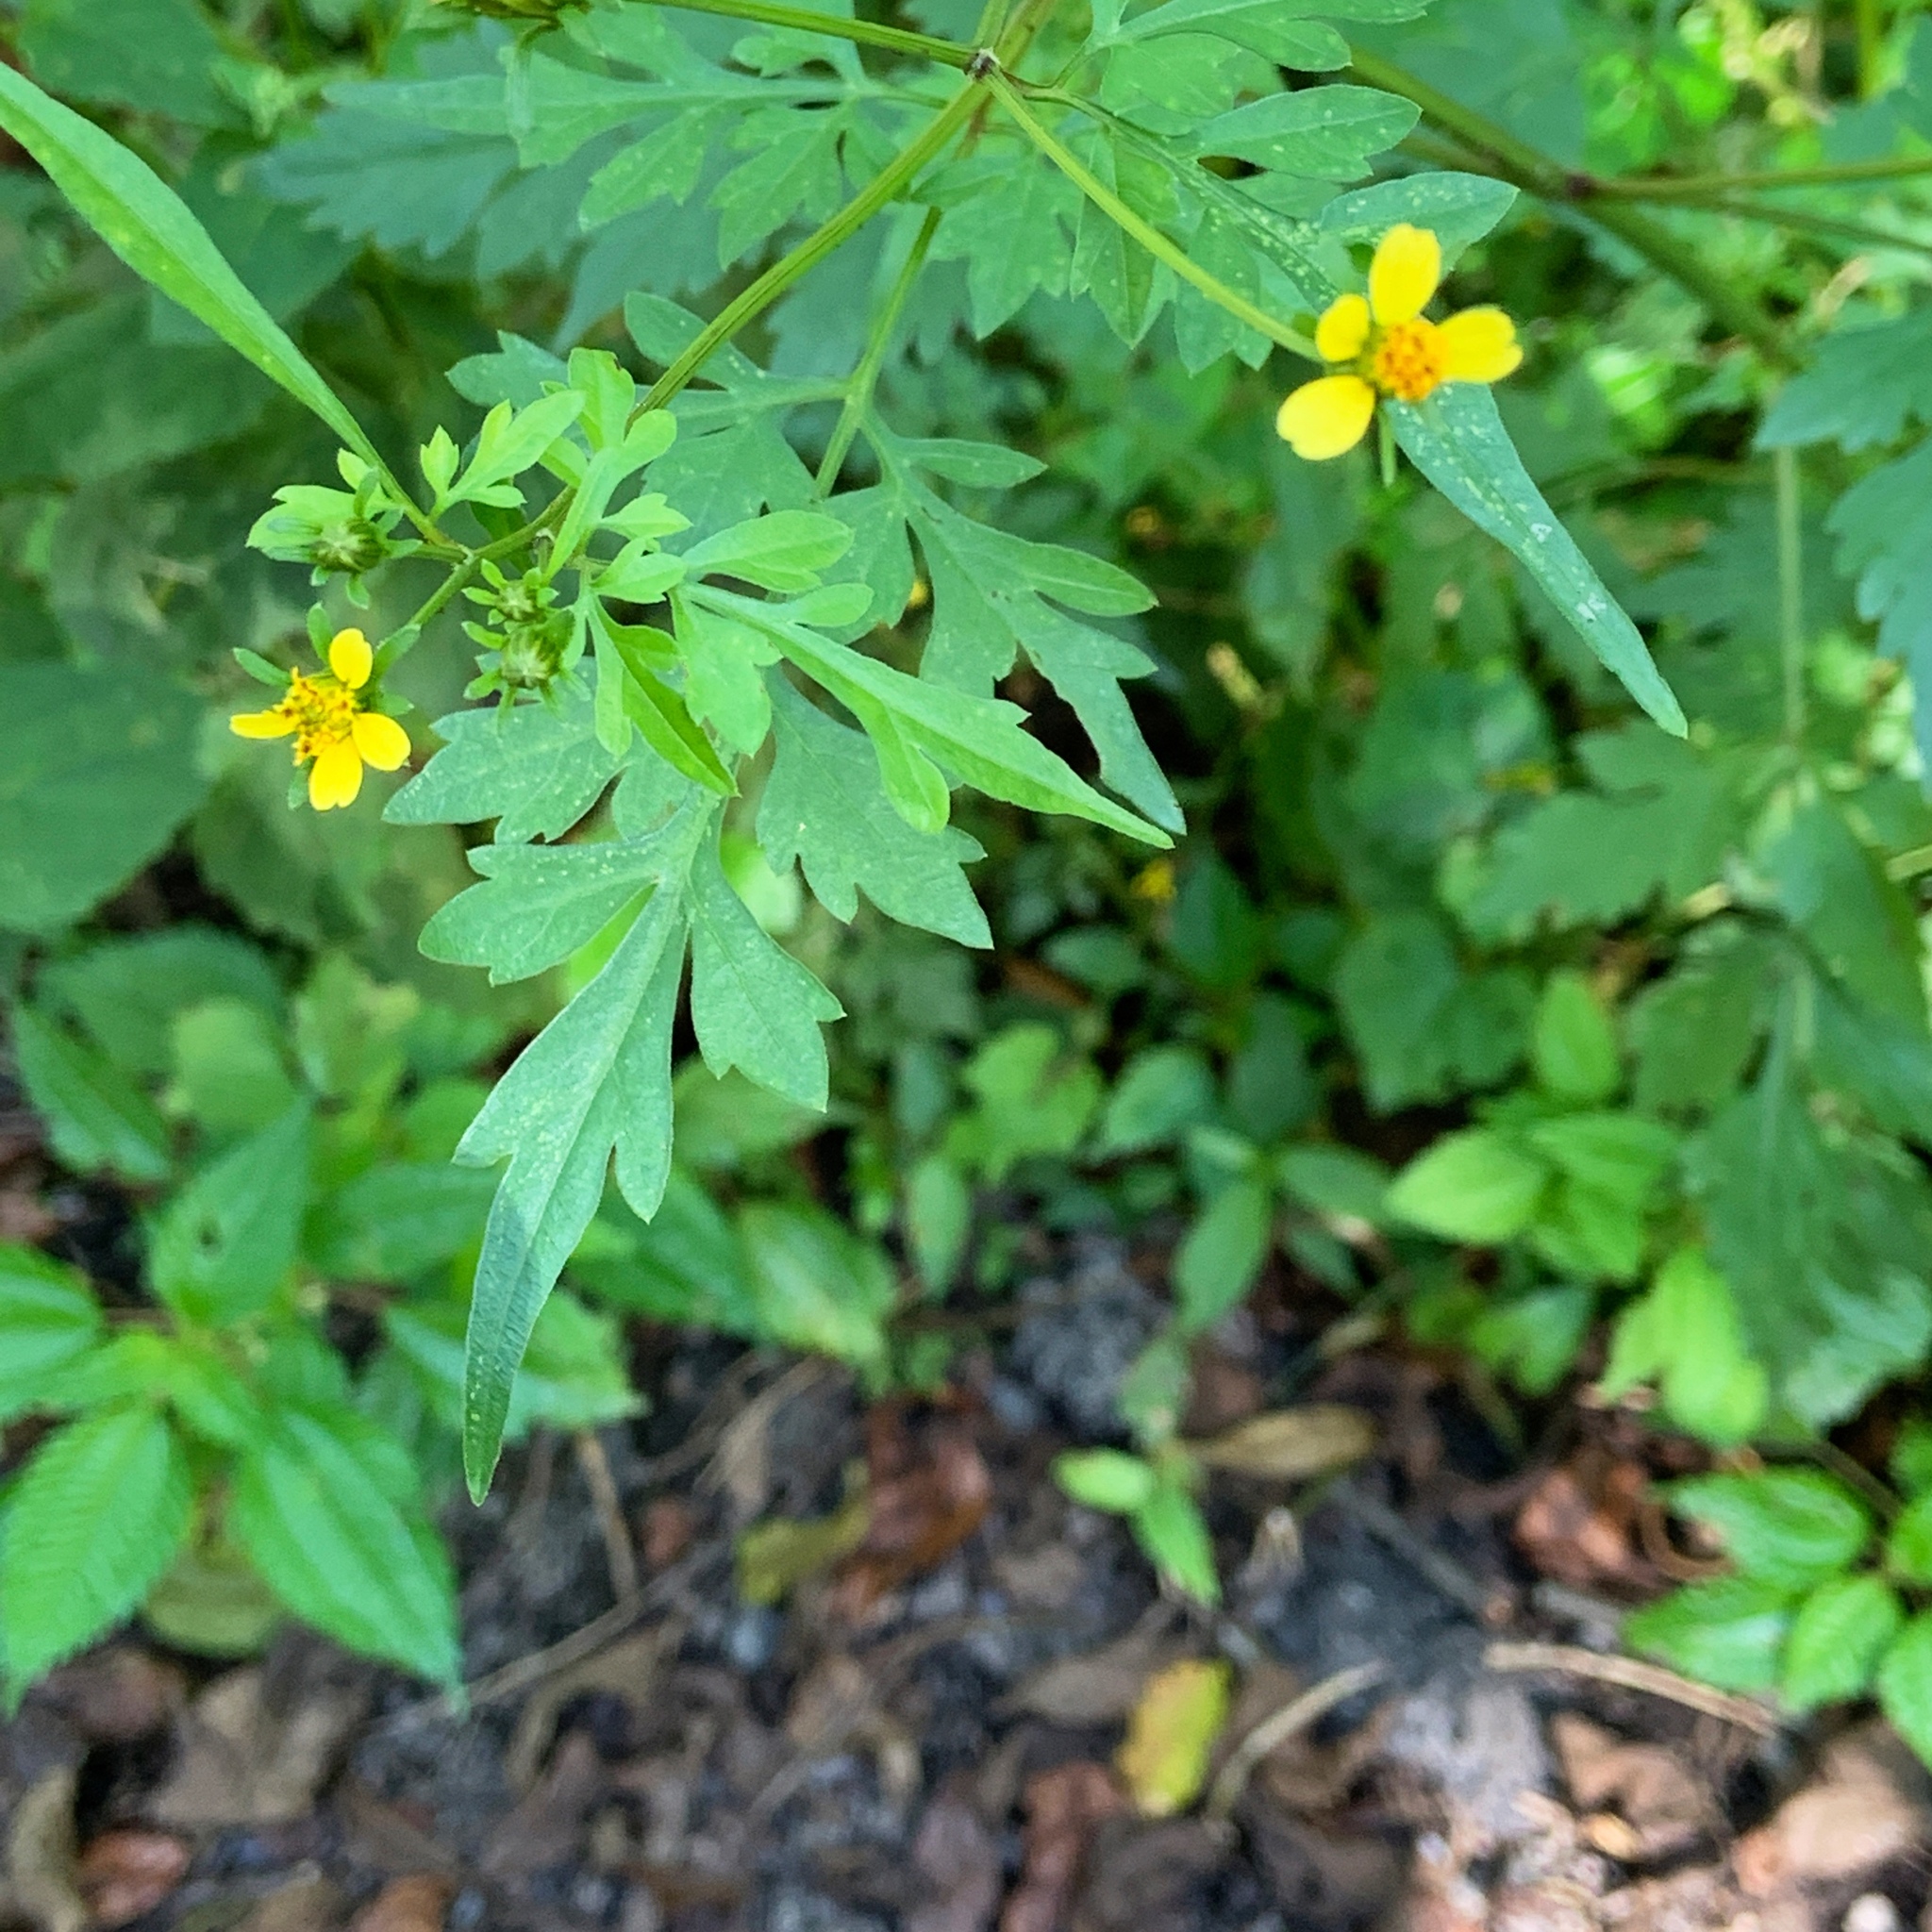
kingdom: Plantae
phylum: Tracheophyta
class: Magnoliopsida
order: Asterales
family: Asteraceae
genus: Bidens
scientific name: Bidens bipinnata
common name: Spanish-needles
